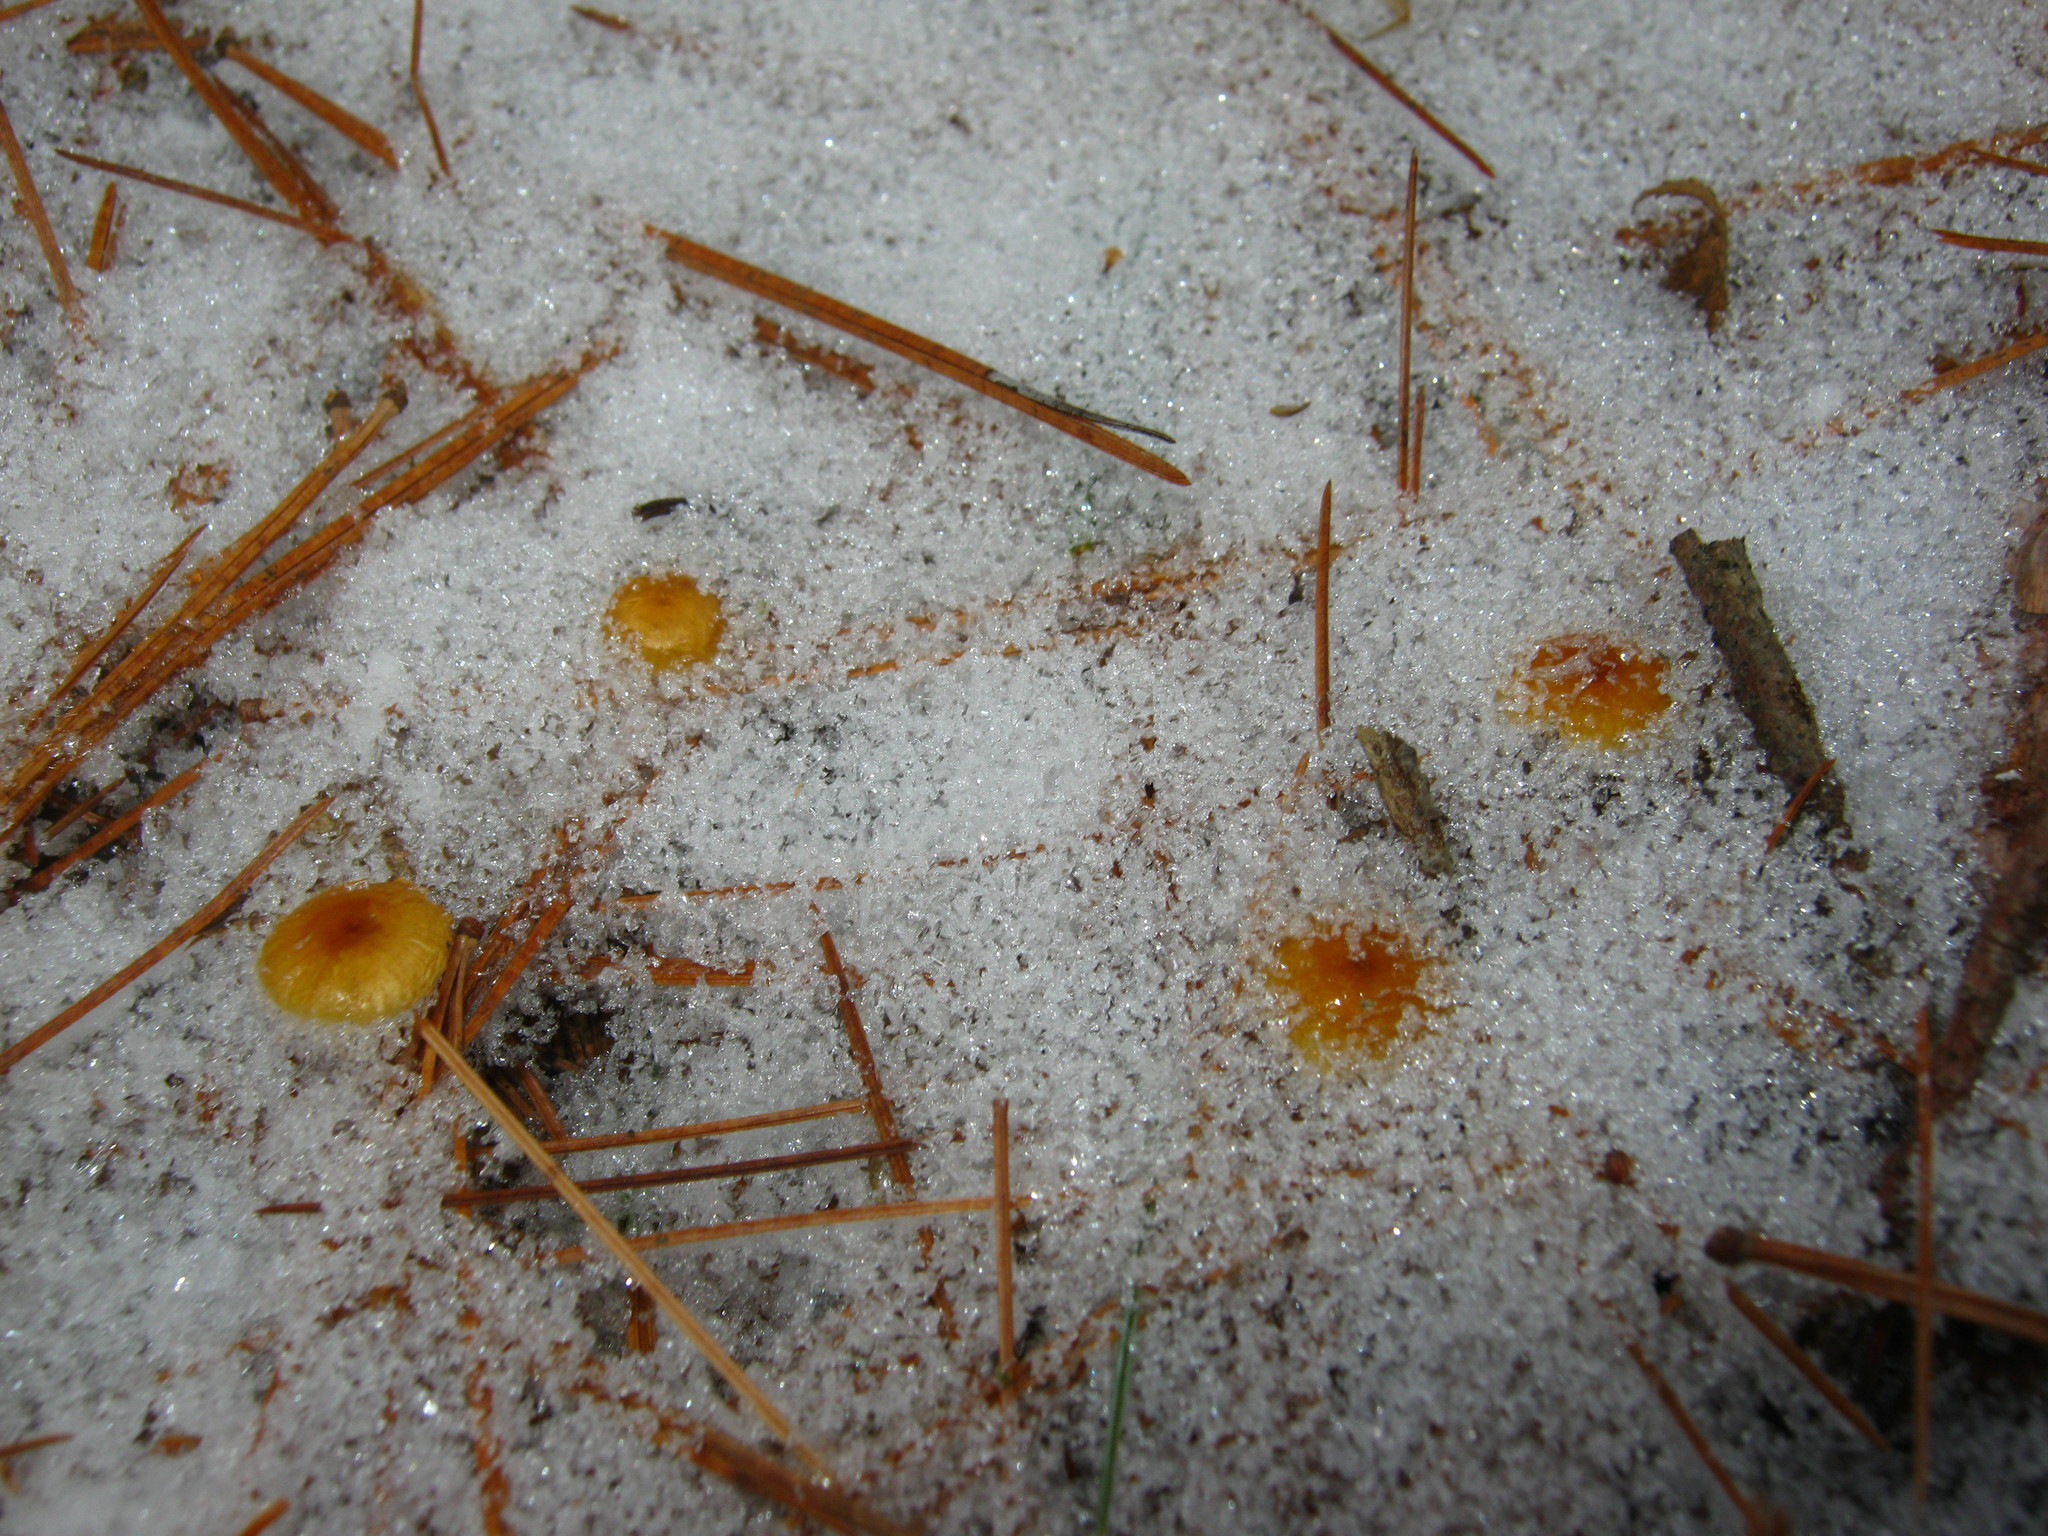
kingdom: Fungi
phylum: Basidiomycota
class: Agaricomycetes
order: Agaricales
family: Mycenaceae
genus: Xeromphalina
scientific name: Xeromphalina cauticinalis
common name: Pinelitter gingertail
